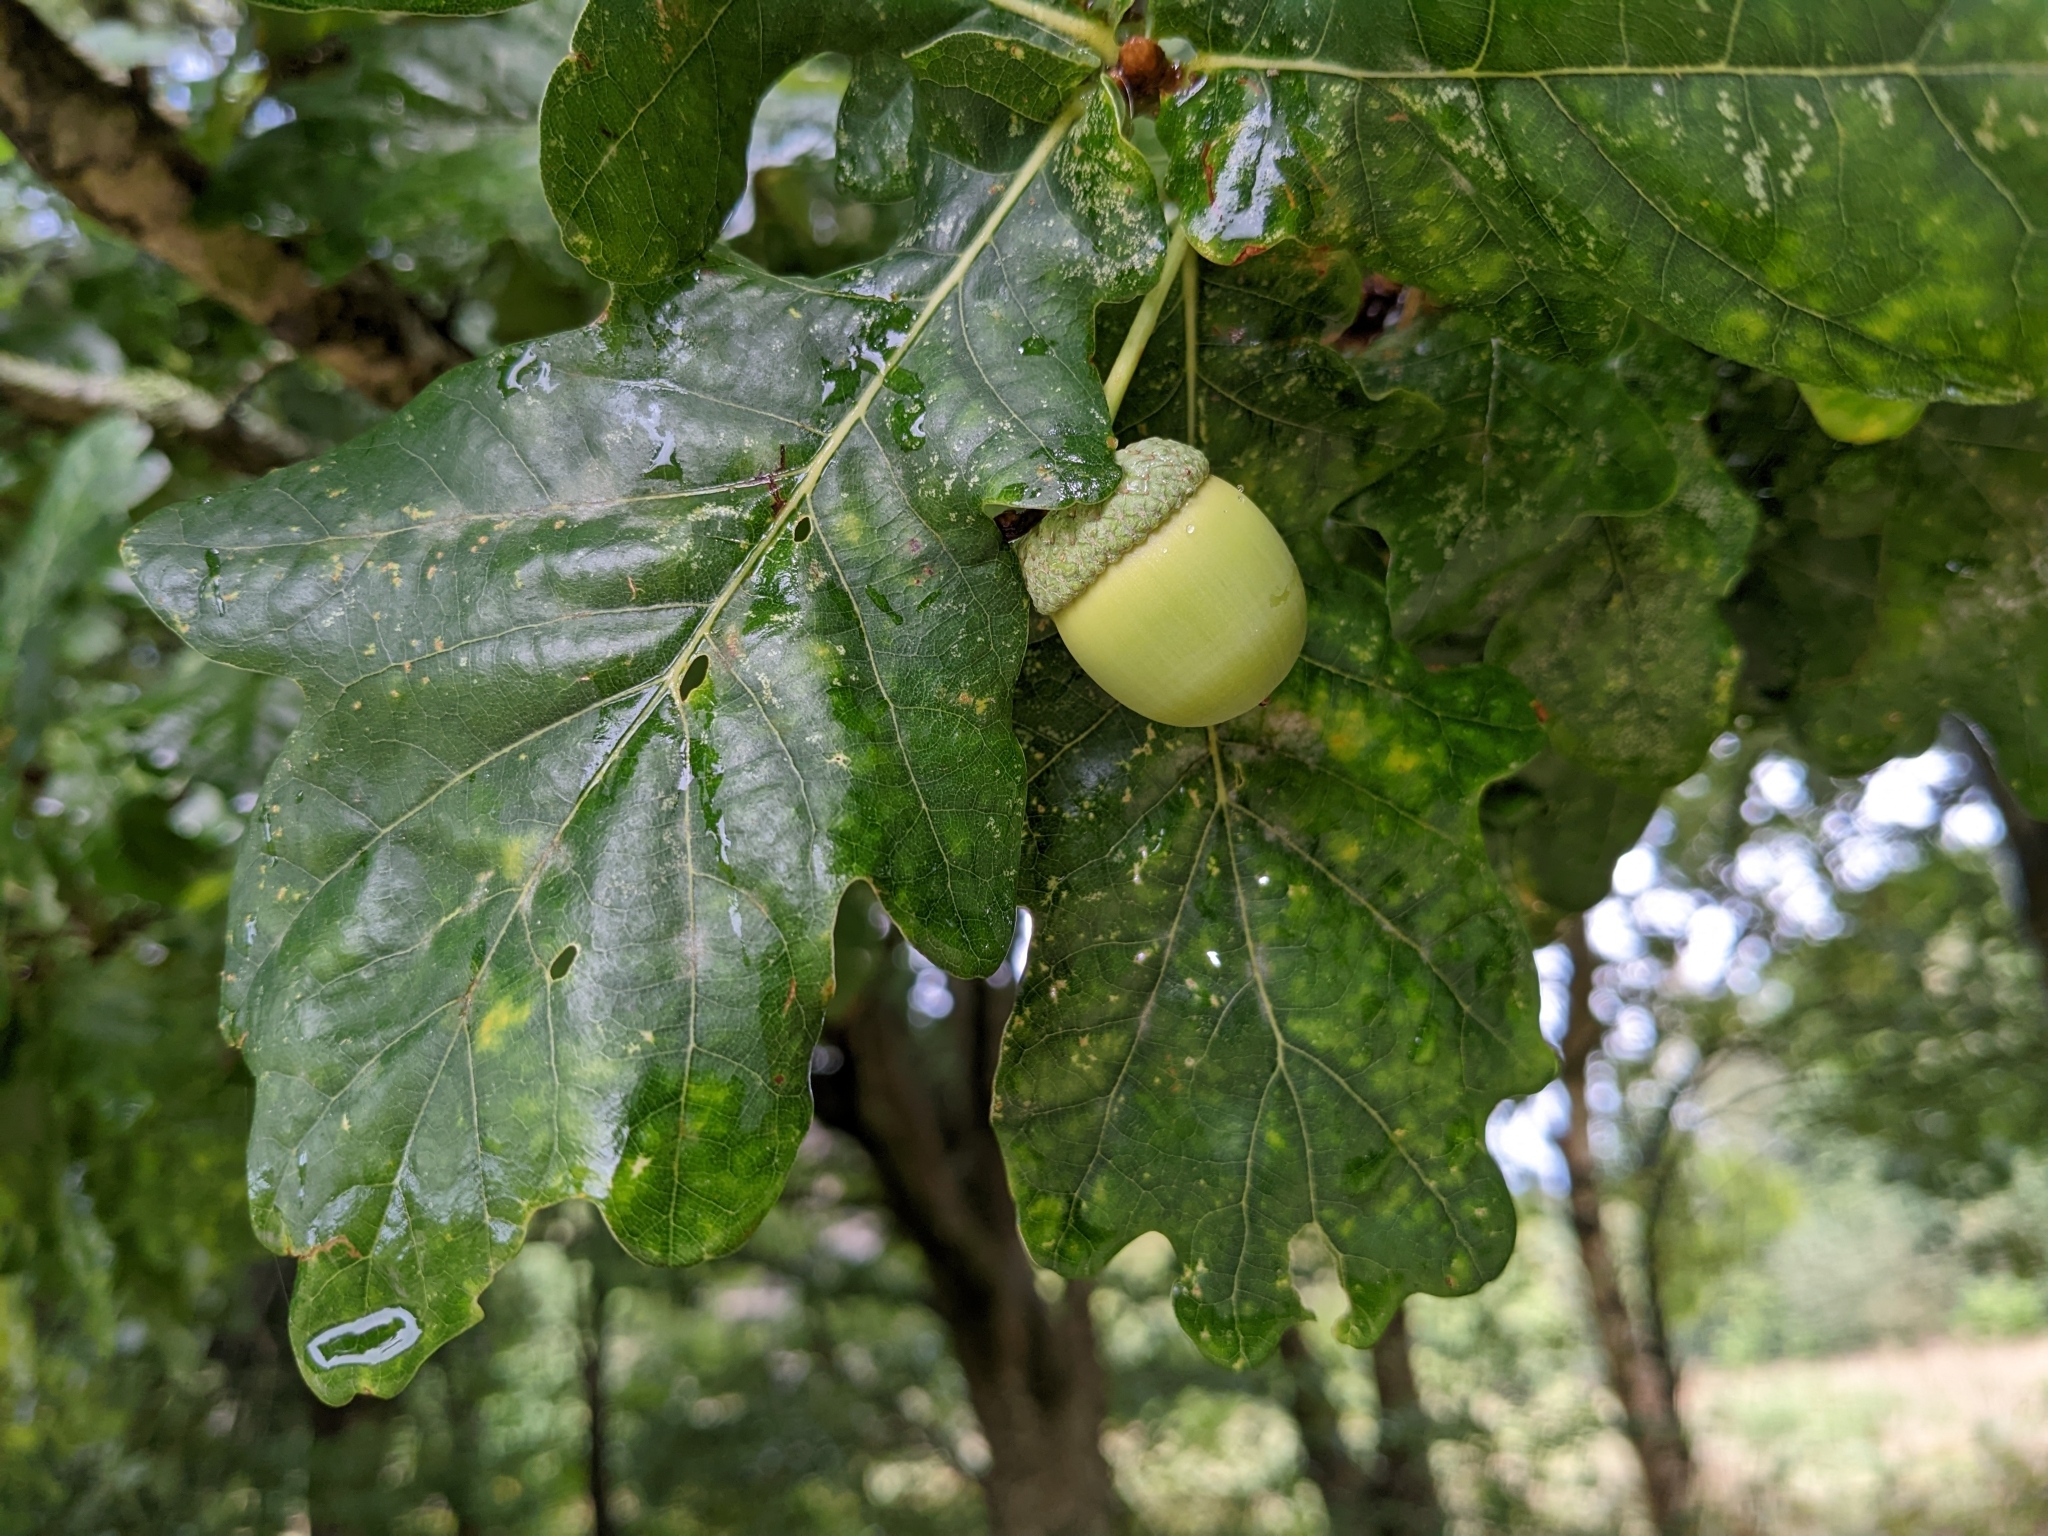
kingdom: Plantae
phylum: Tracheophyta
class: Magnoliopsida
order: Fagales
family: Fagaceae
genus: Quercus
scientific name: Quercus robur
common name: Pedunculate oak
